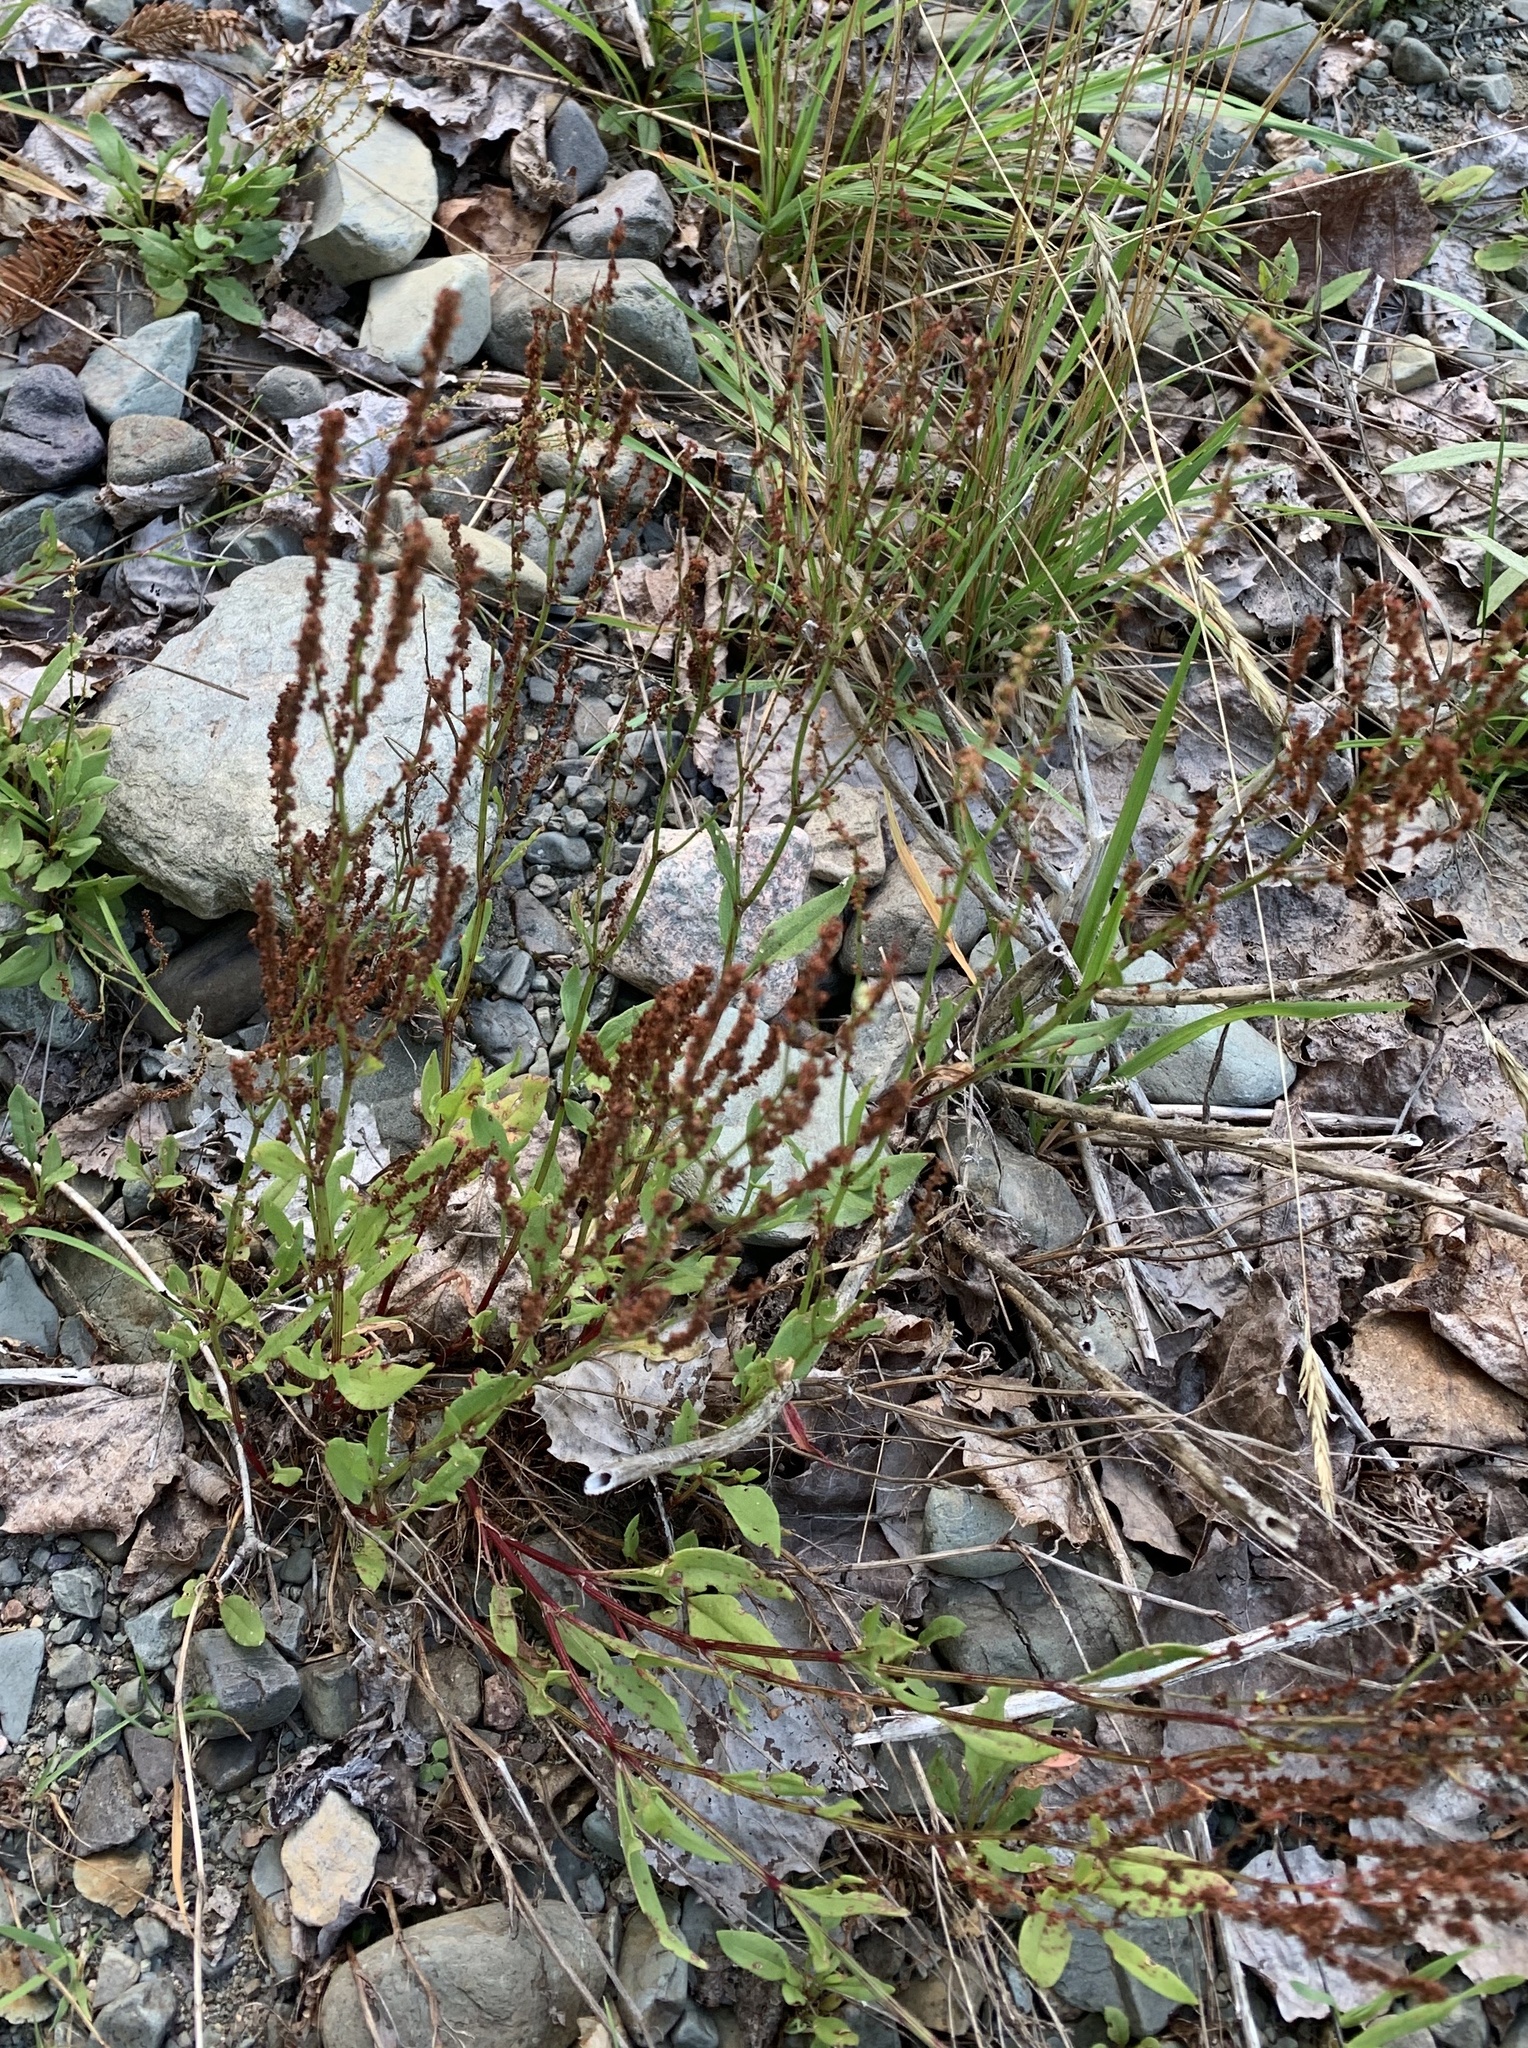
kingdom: Plantae
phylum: Tracheophyta
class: Magnoliopsida
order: Caryophyllales
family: Polygonaceae
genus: Rumex
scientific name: Rumex acetosella
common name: Common sheep sorrel
